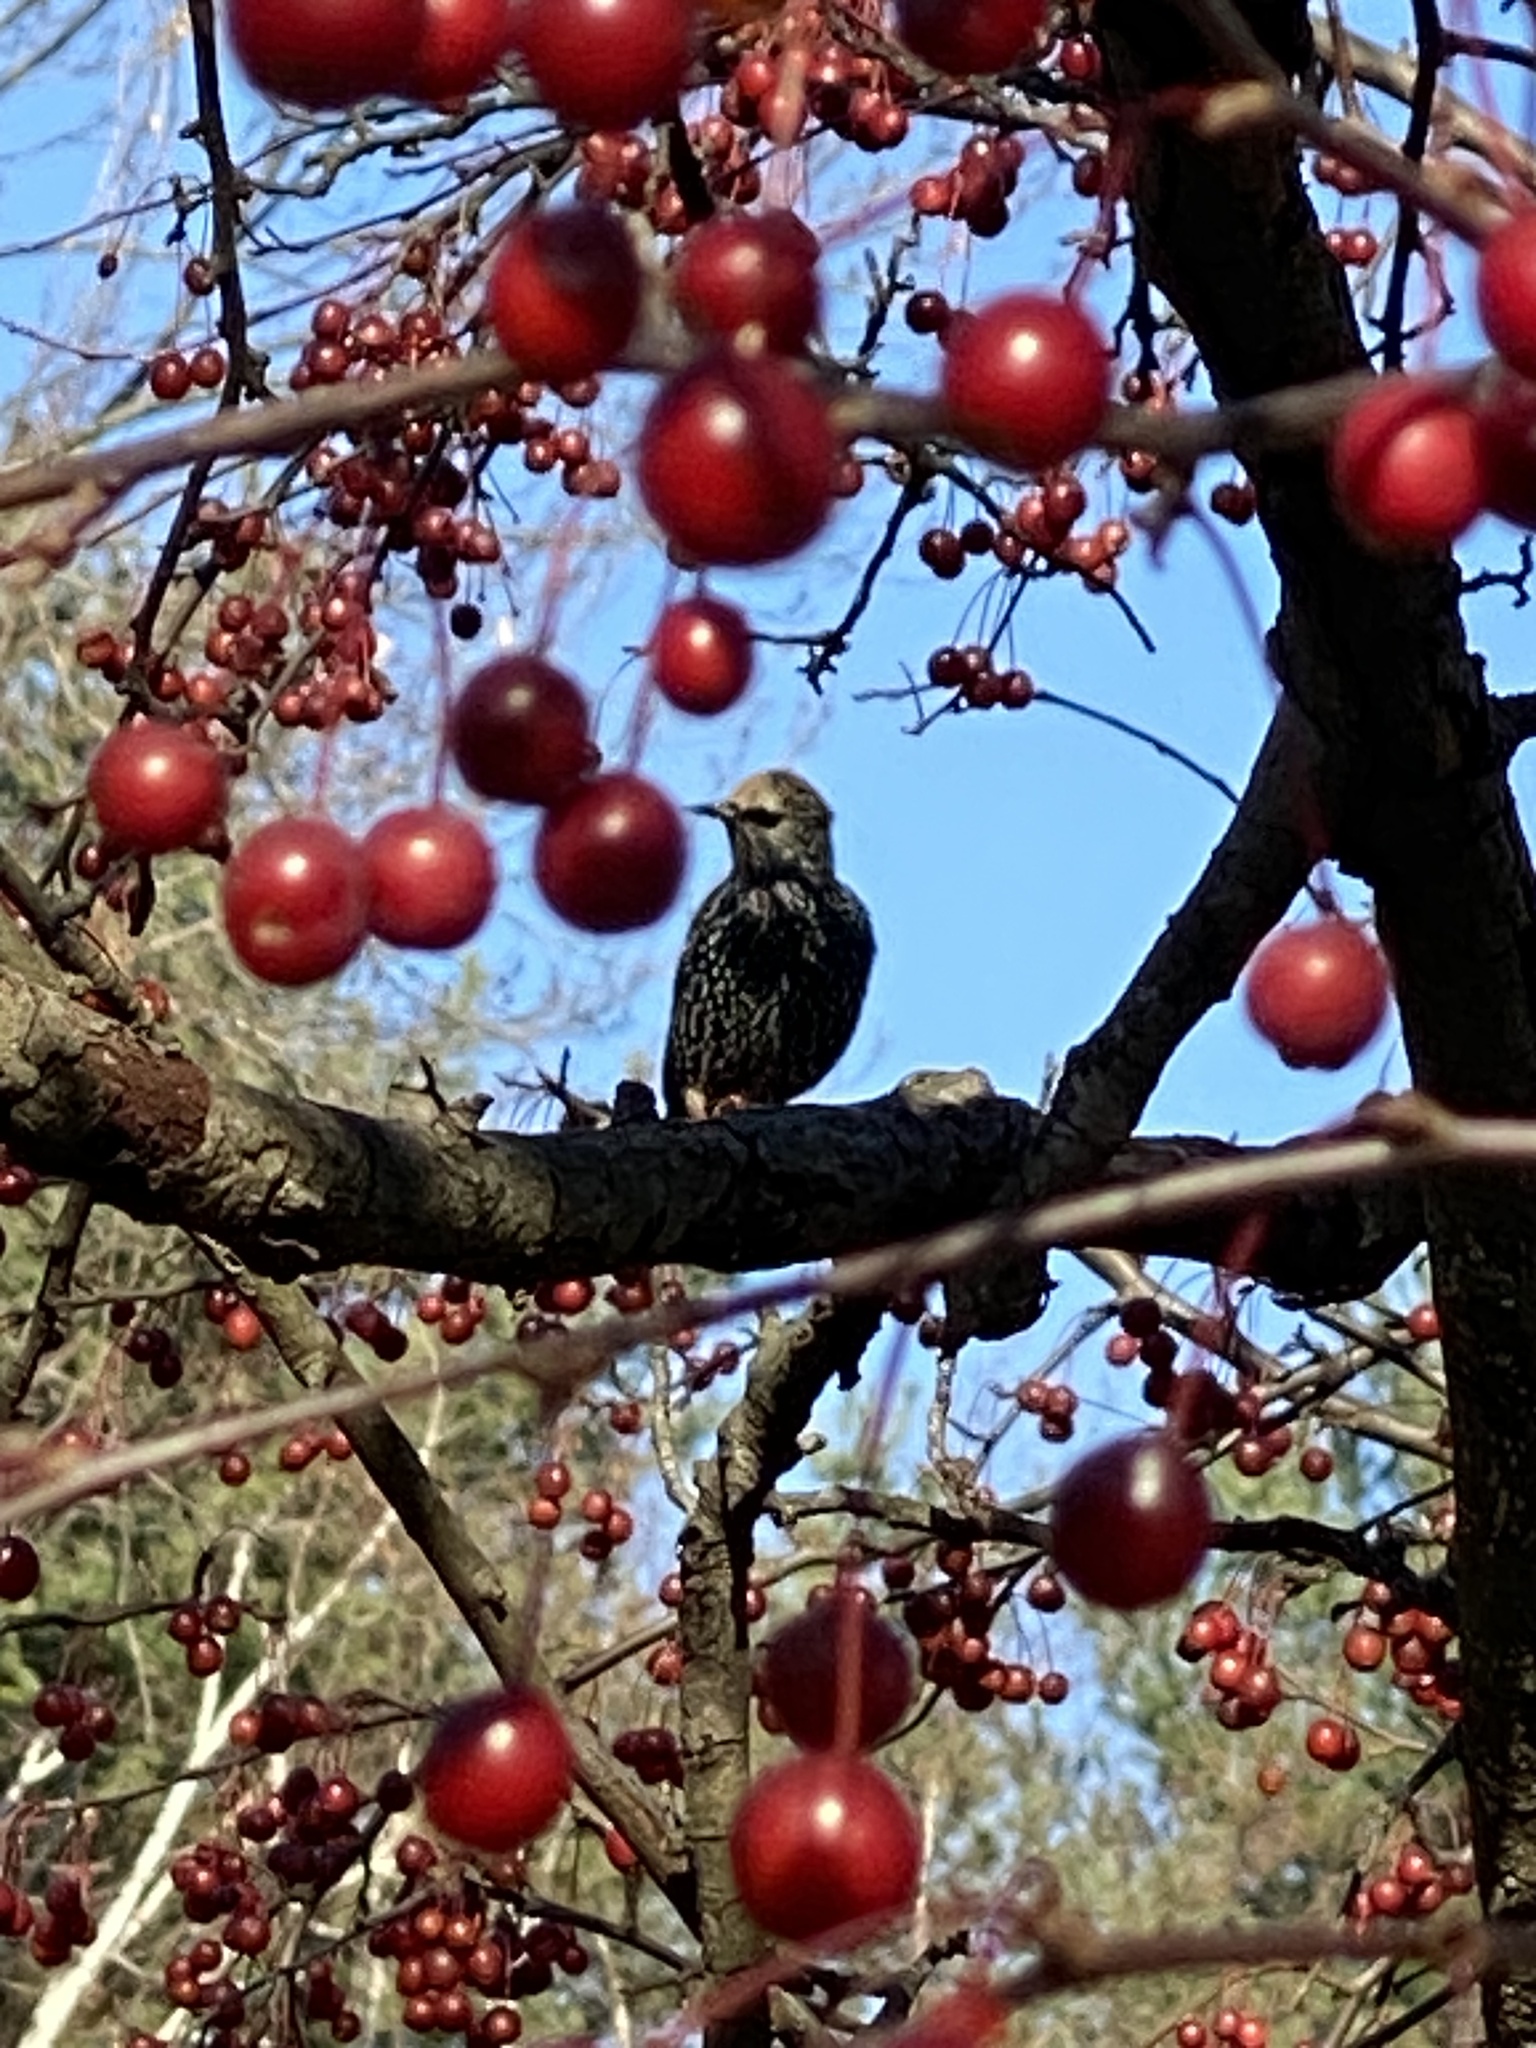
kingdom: Animalia
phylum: Chordata
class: Aves
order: Passeriformes
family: Sturnidae
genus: Sturnus
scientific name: Sturnus vulgaris
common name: Common starling
